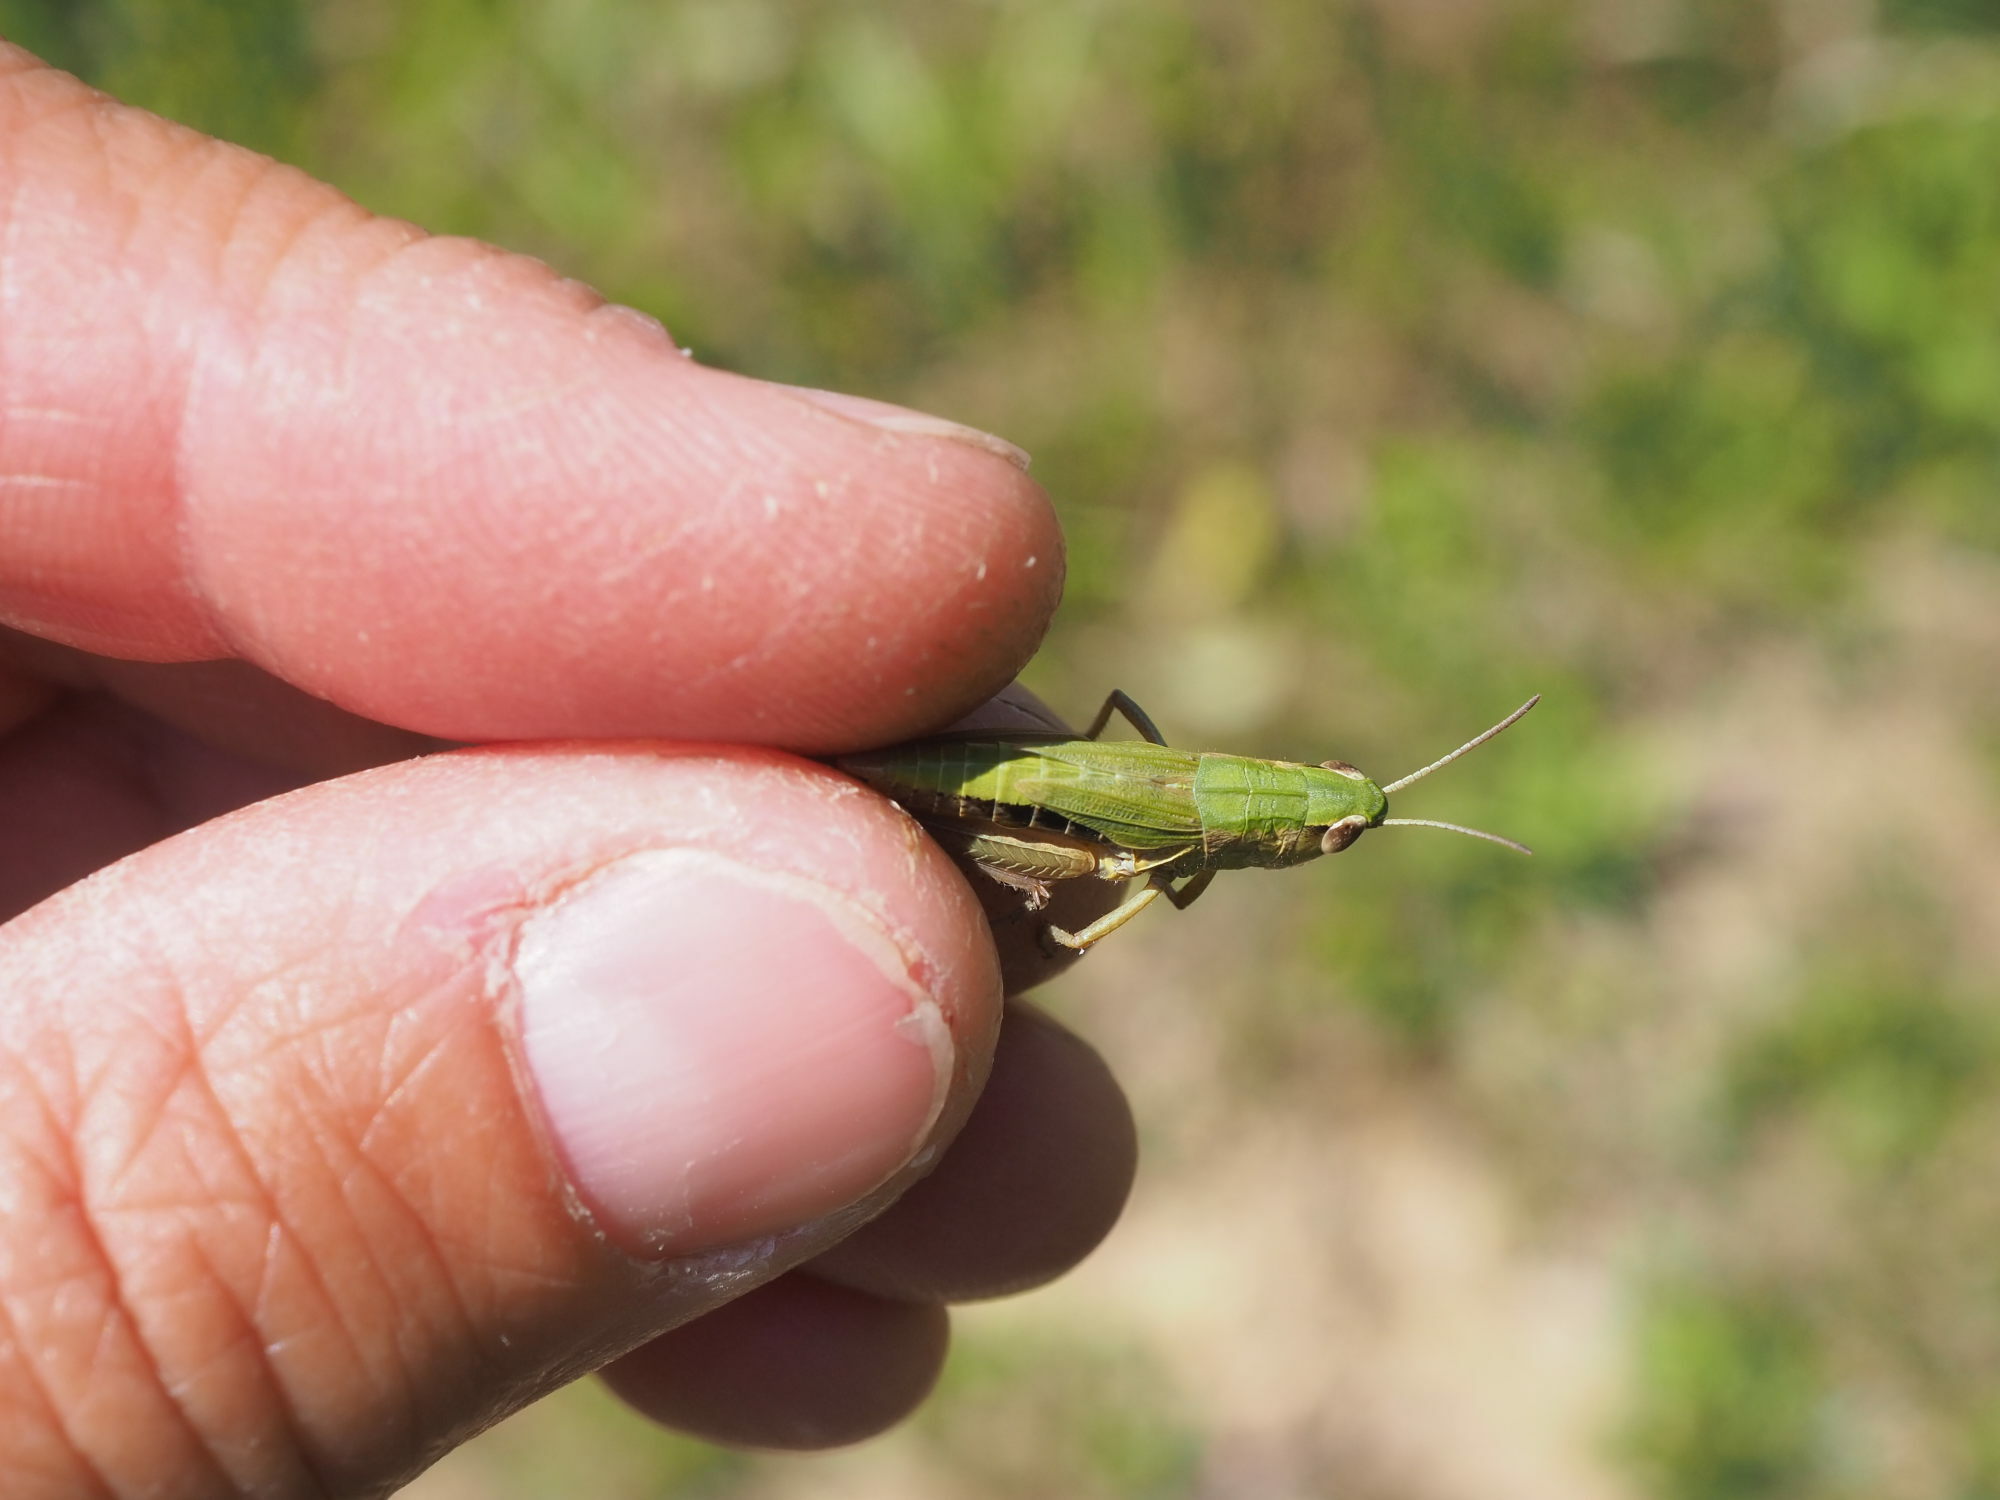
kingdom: Animalia
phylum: Arthropoda
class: Insecta
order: Orthoptera
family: Acrididae
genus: Pseudochorthippus
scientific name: Pseudochorthippus parallelus
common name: Meadow grasshopper
